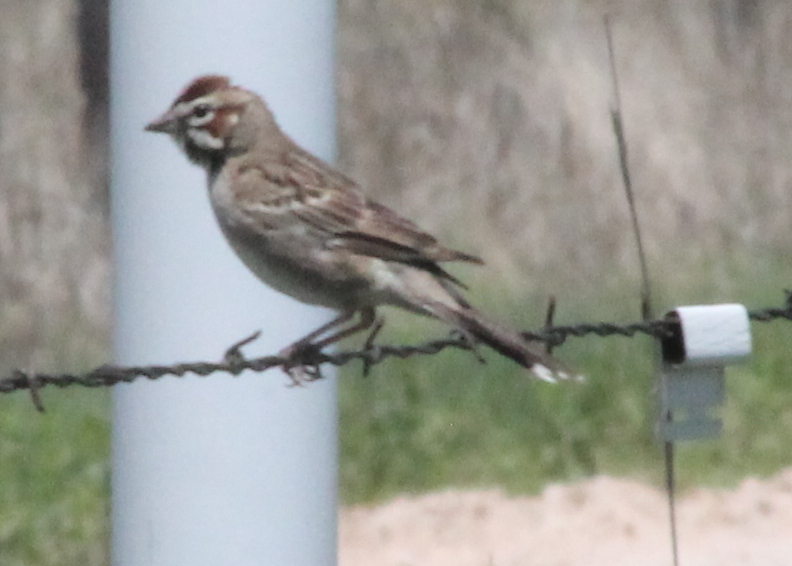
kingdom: Animalia
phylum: Chordata
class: Aves
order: Passeriformes
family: Passerellidae
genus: Chondestes
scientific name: Chondestes grammacus
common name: Lark sparrow
